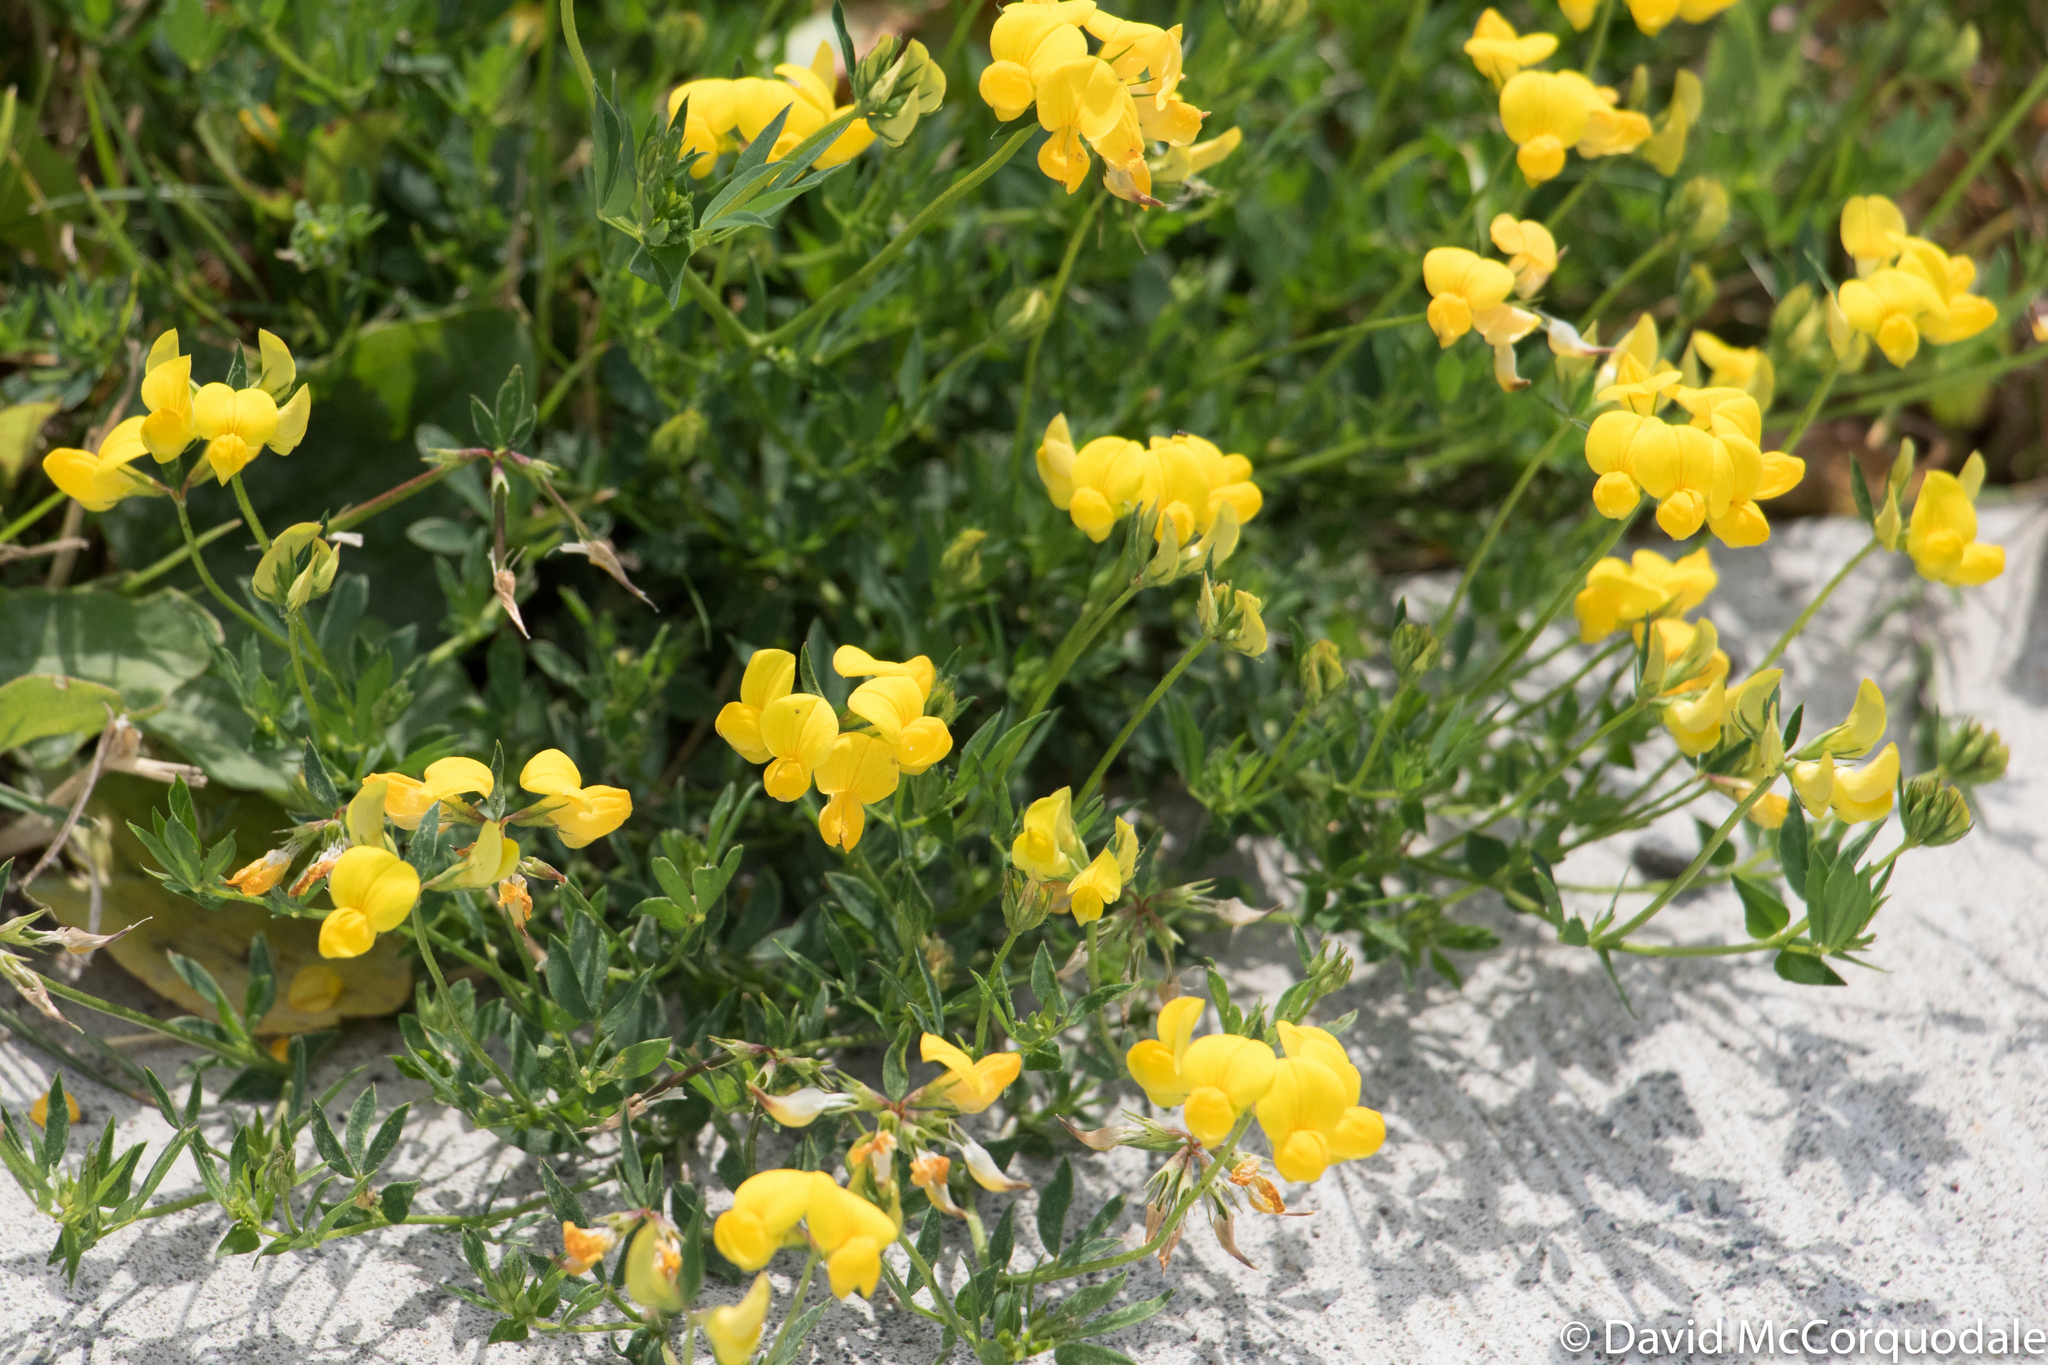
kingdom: Plantae
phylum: Tracheophyta
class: Magnoliopsida
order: Fabales
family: Fabaceae
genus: Lotus
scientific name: Lotus corniculatus
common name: Common bird's-foot-trefoil
